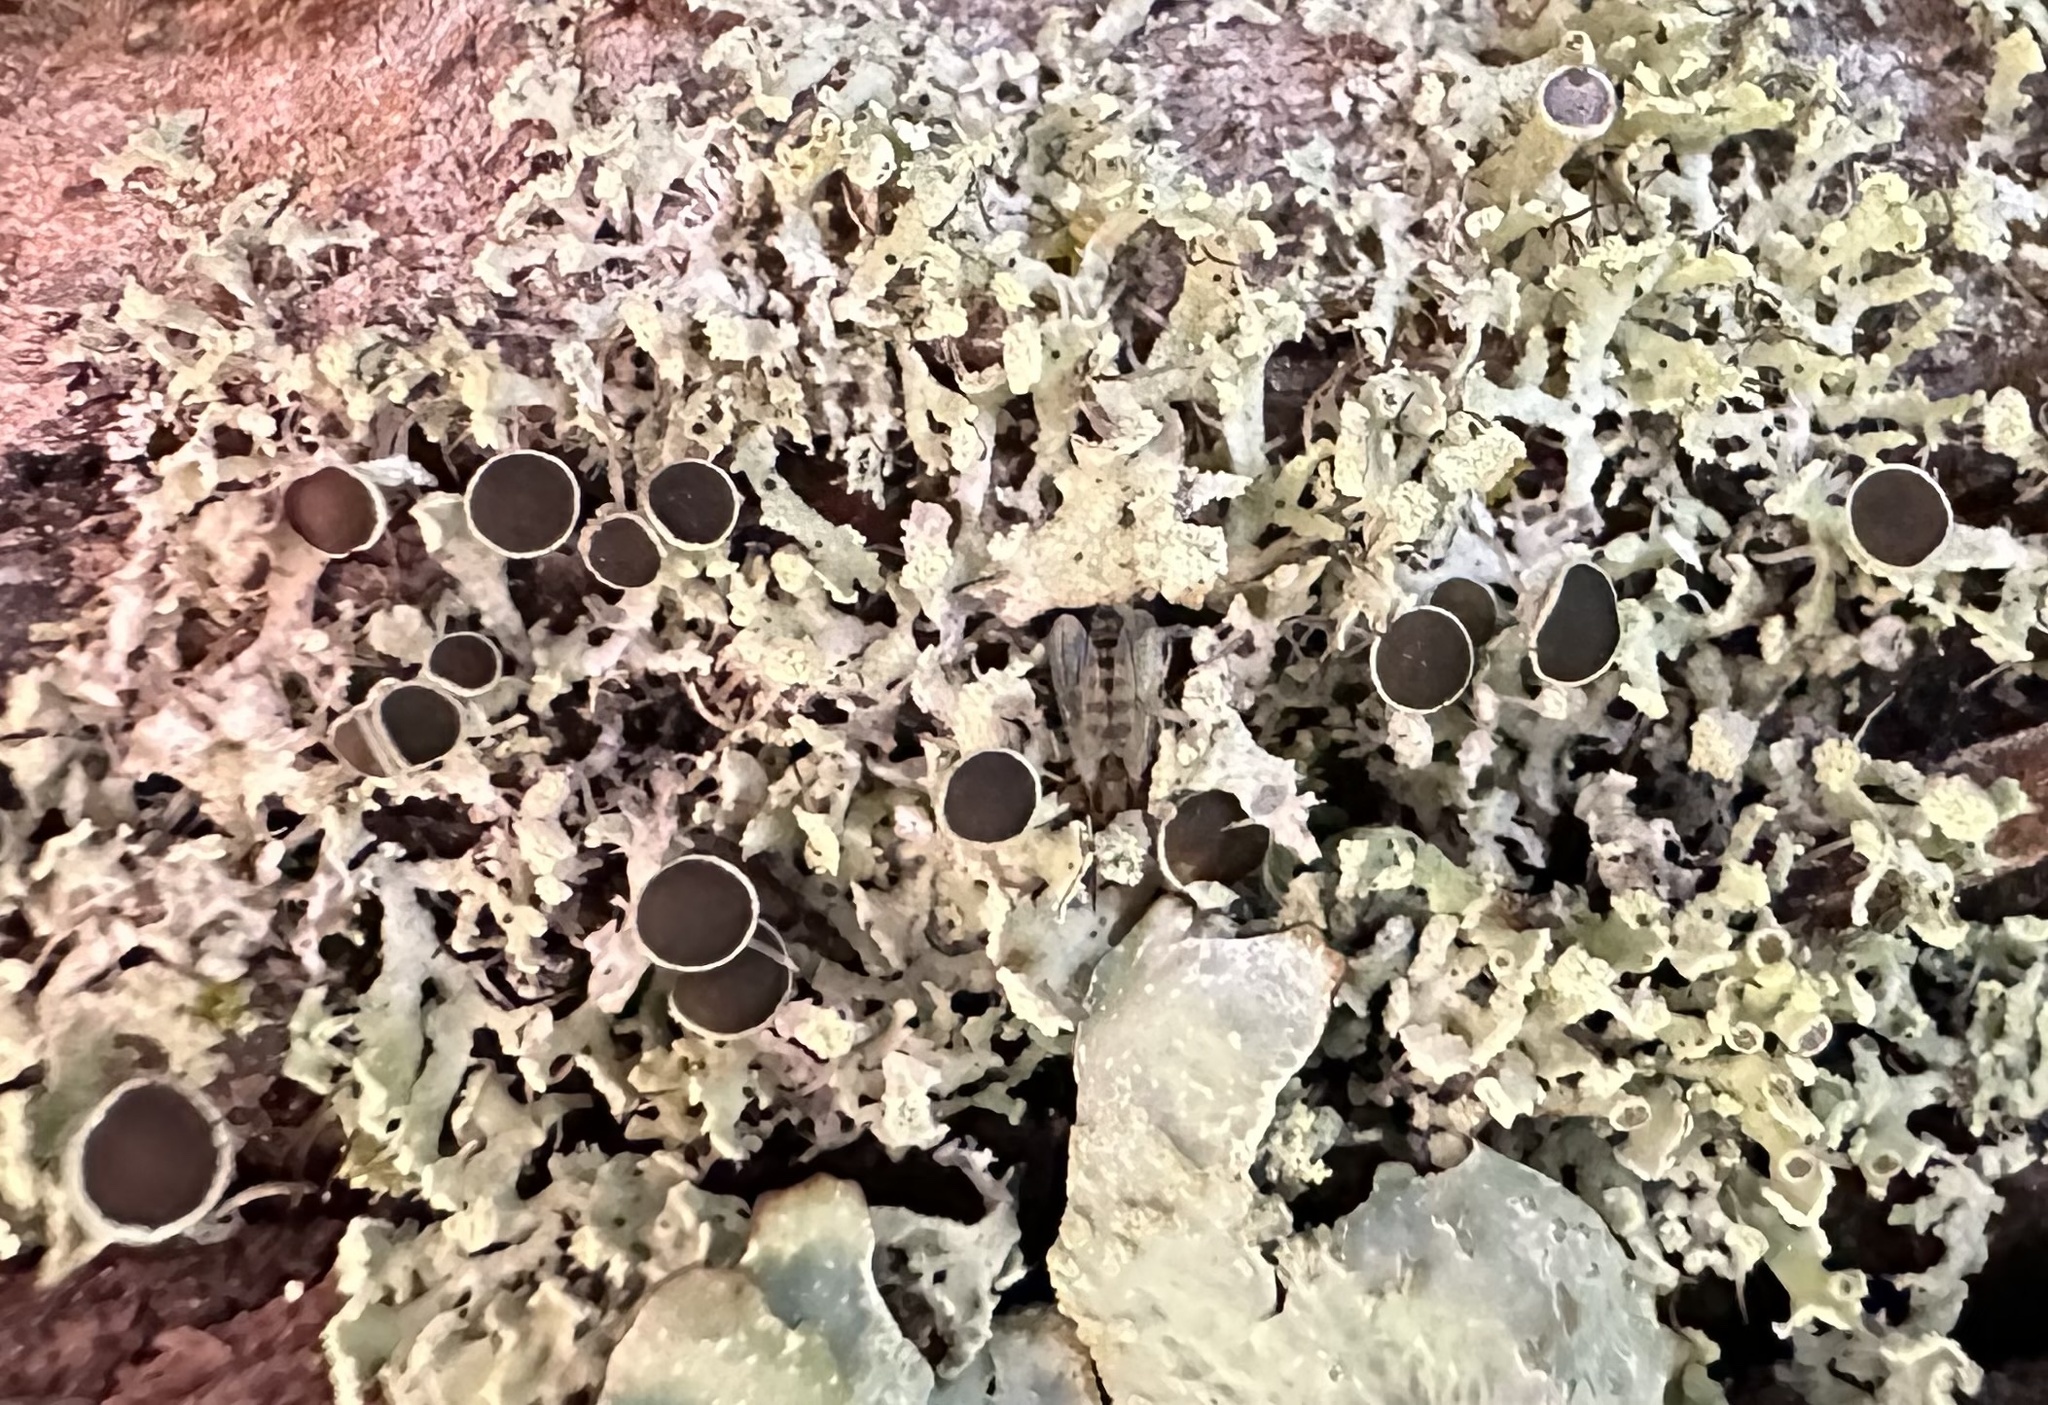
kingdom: Fungi
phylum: Ascomycota
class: Lecanoromycetes
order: Caliciales
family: Physciaceae
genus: Physcia
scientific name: Physcia tenella
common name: Fringed rosette lichen
